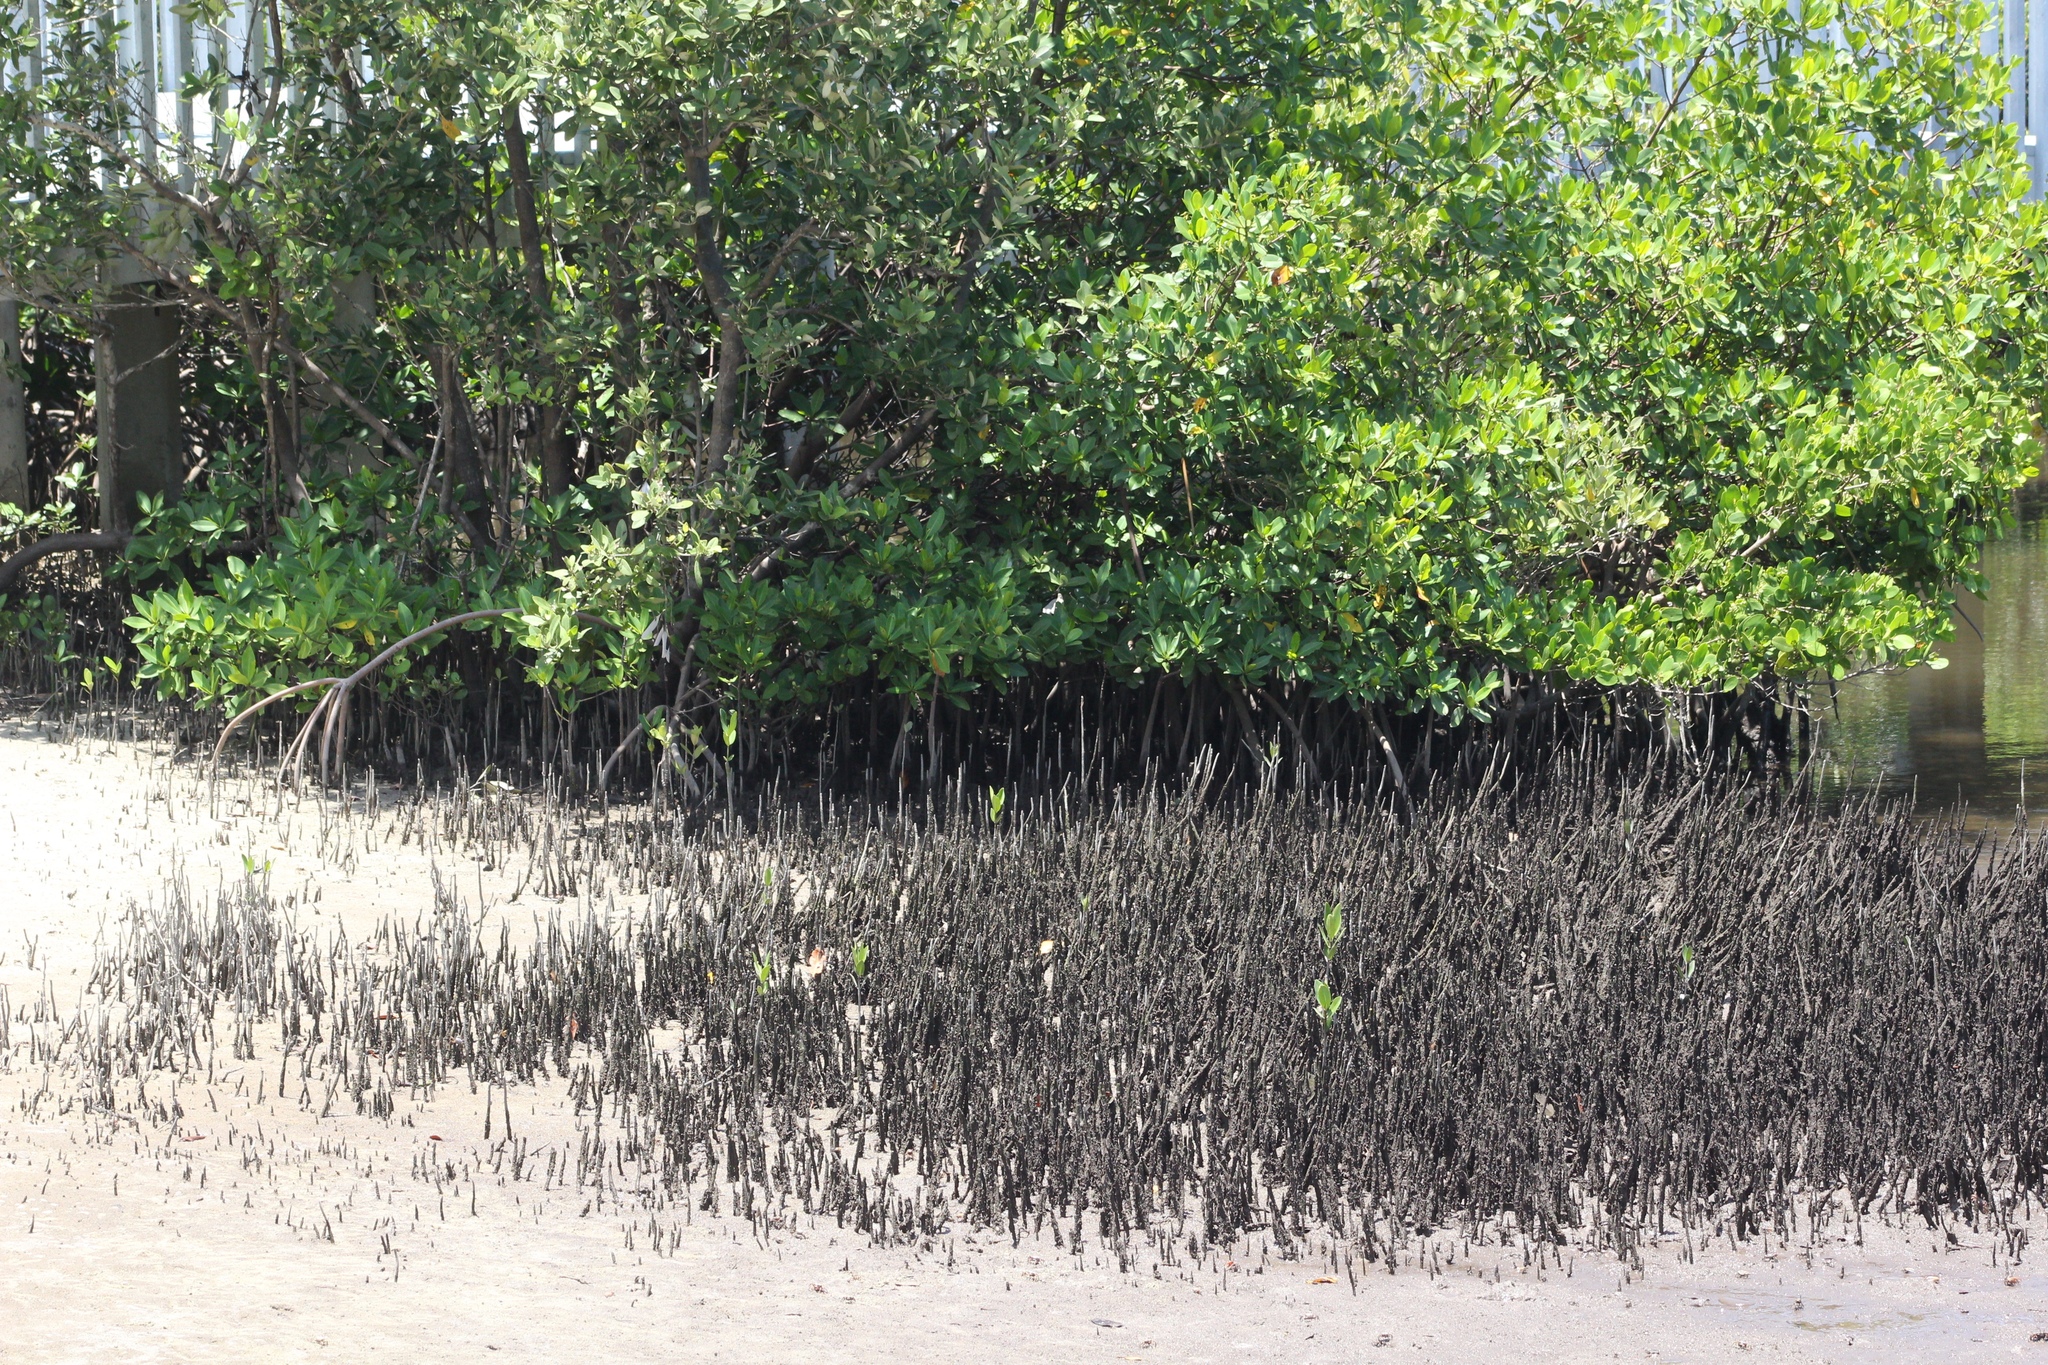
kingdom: Plantae
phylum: Tracheophyta
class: Magnoliopsida
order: Lamiales
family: Acanthaceae
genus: Avicennia
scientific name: Avicennia germinans
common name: Black mangrove
